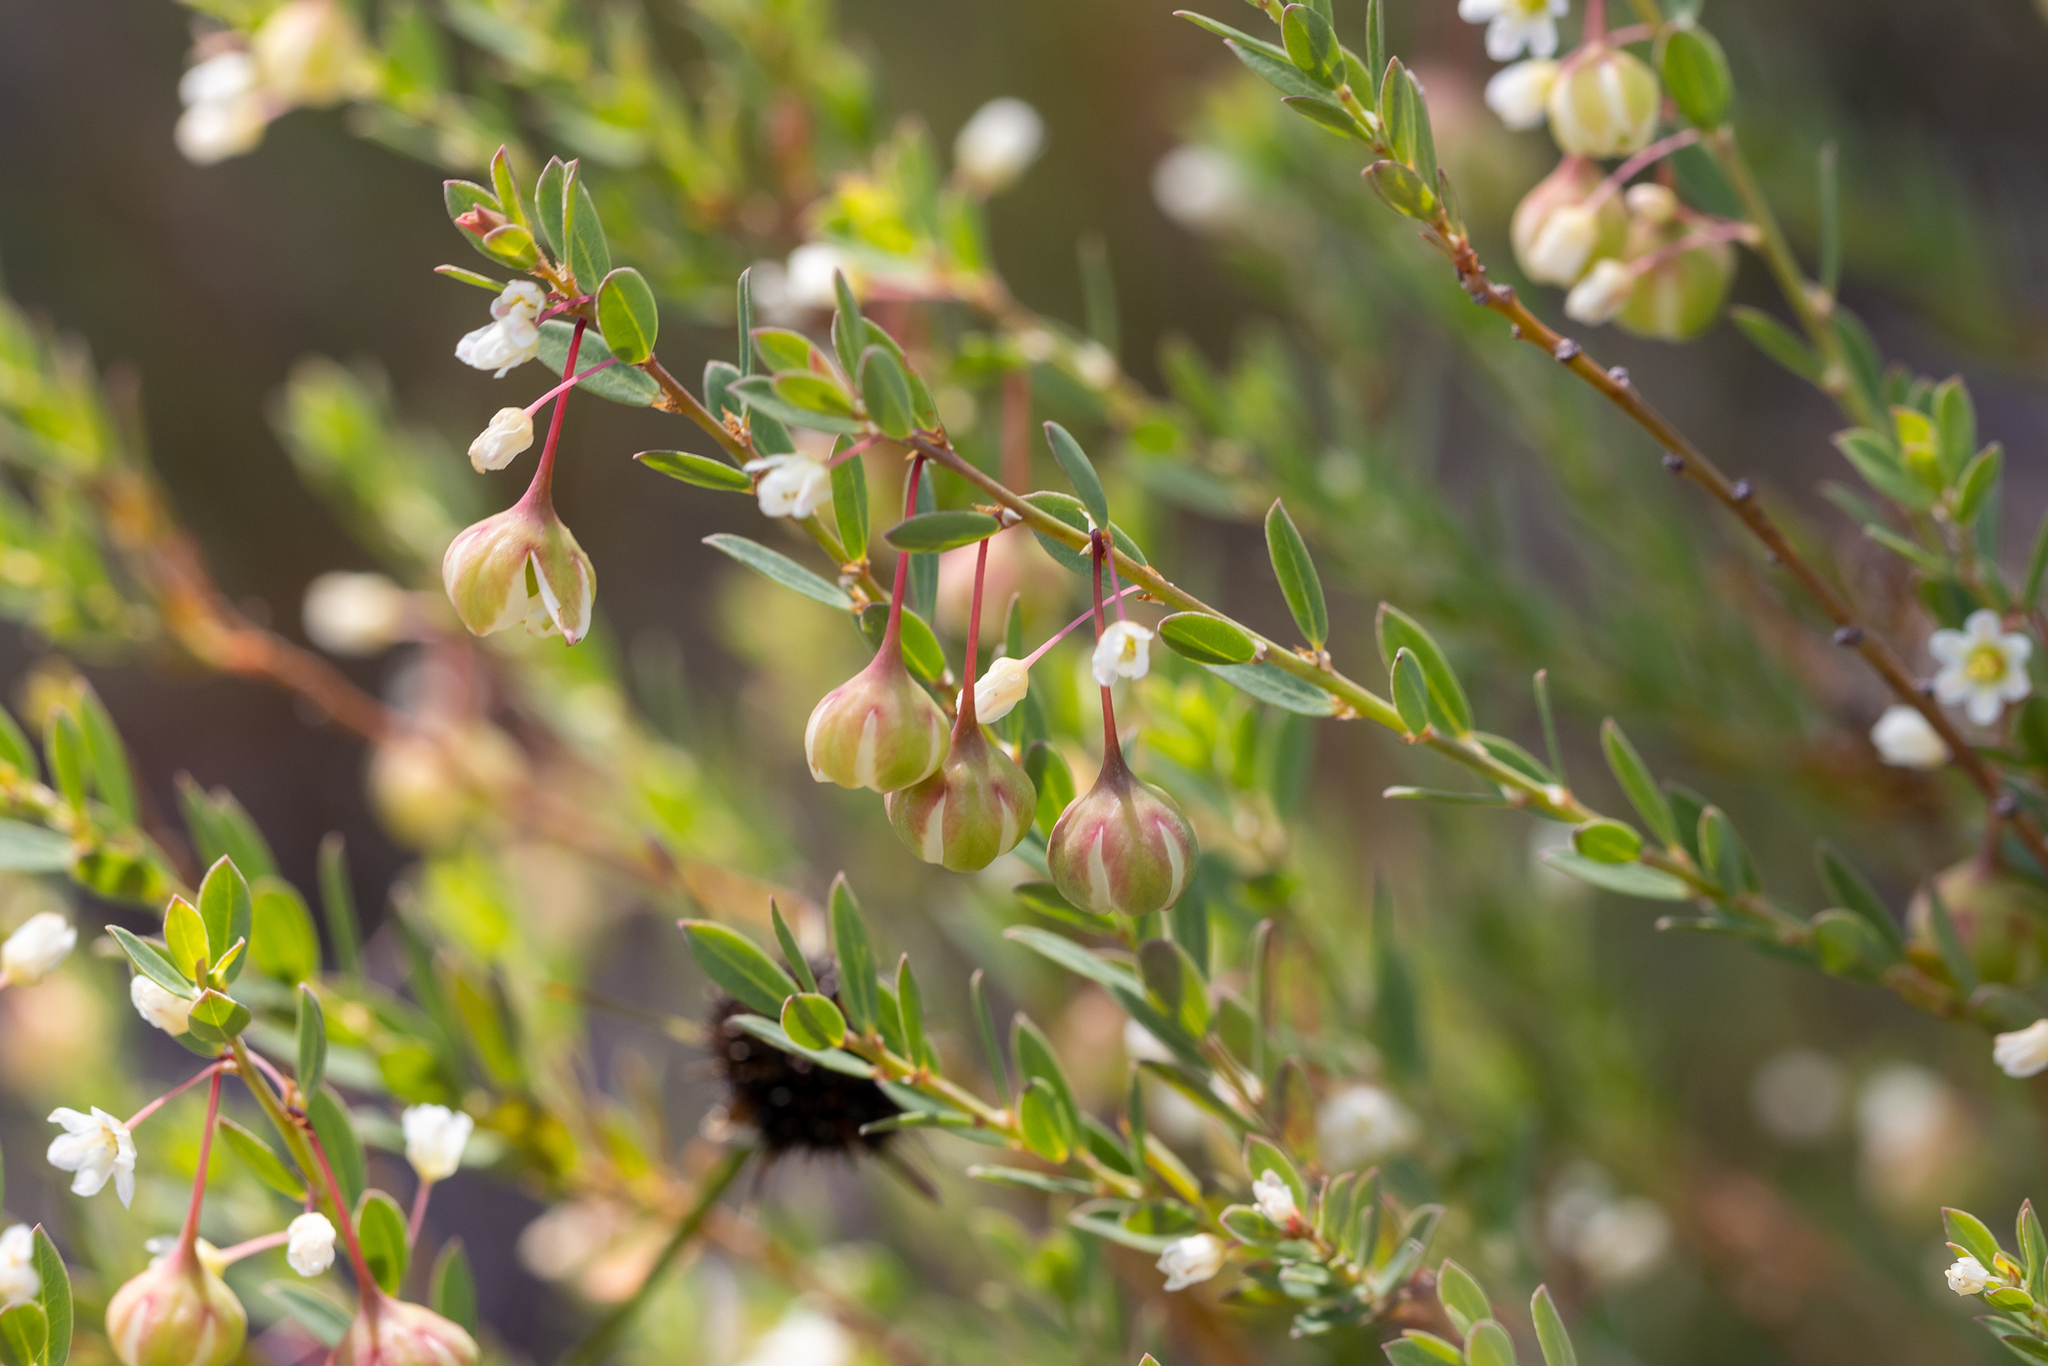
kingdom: Plantae
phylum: Tracheophyta
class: Magnoliopsida
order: Malpighiales
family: Phyllanthaceae
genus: Phyllanthus
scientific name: Phyllanthus calycinus
